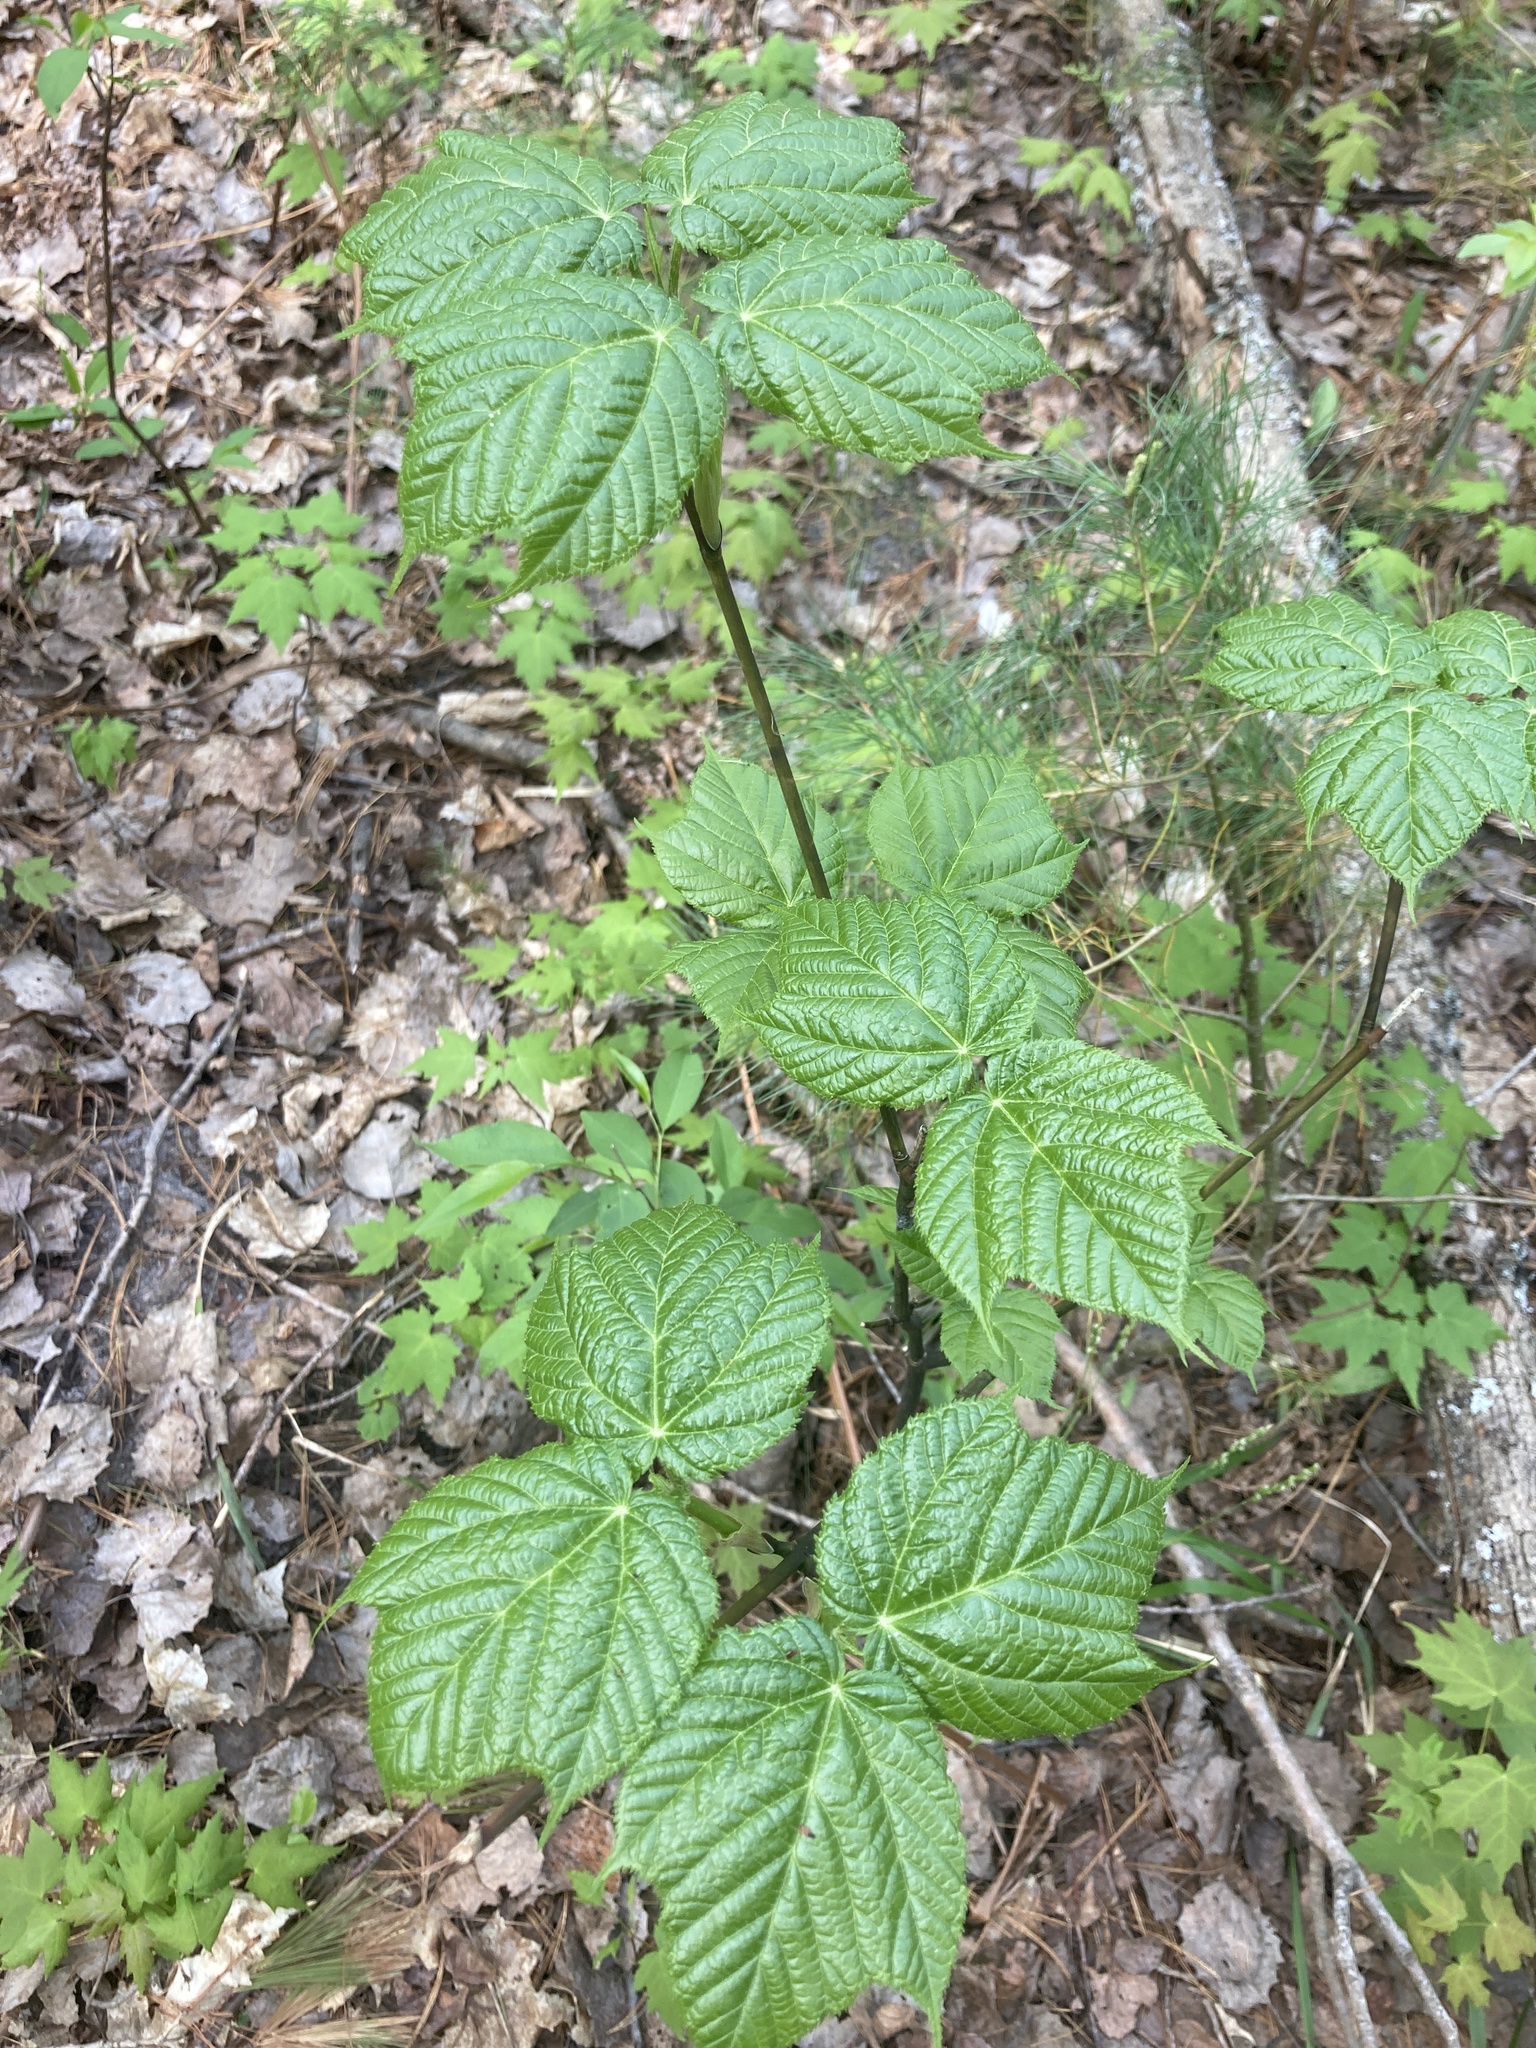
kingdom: Plantae
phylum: Tracheophyta
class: Magnoliopsida
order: Sapindales
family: Sapindaceae
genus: Acer
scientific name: Acer pensylvanicum
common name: Moosewood
